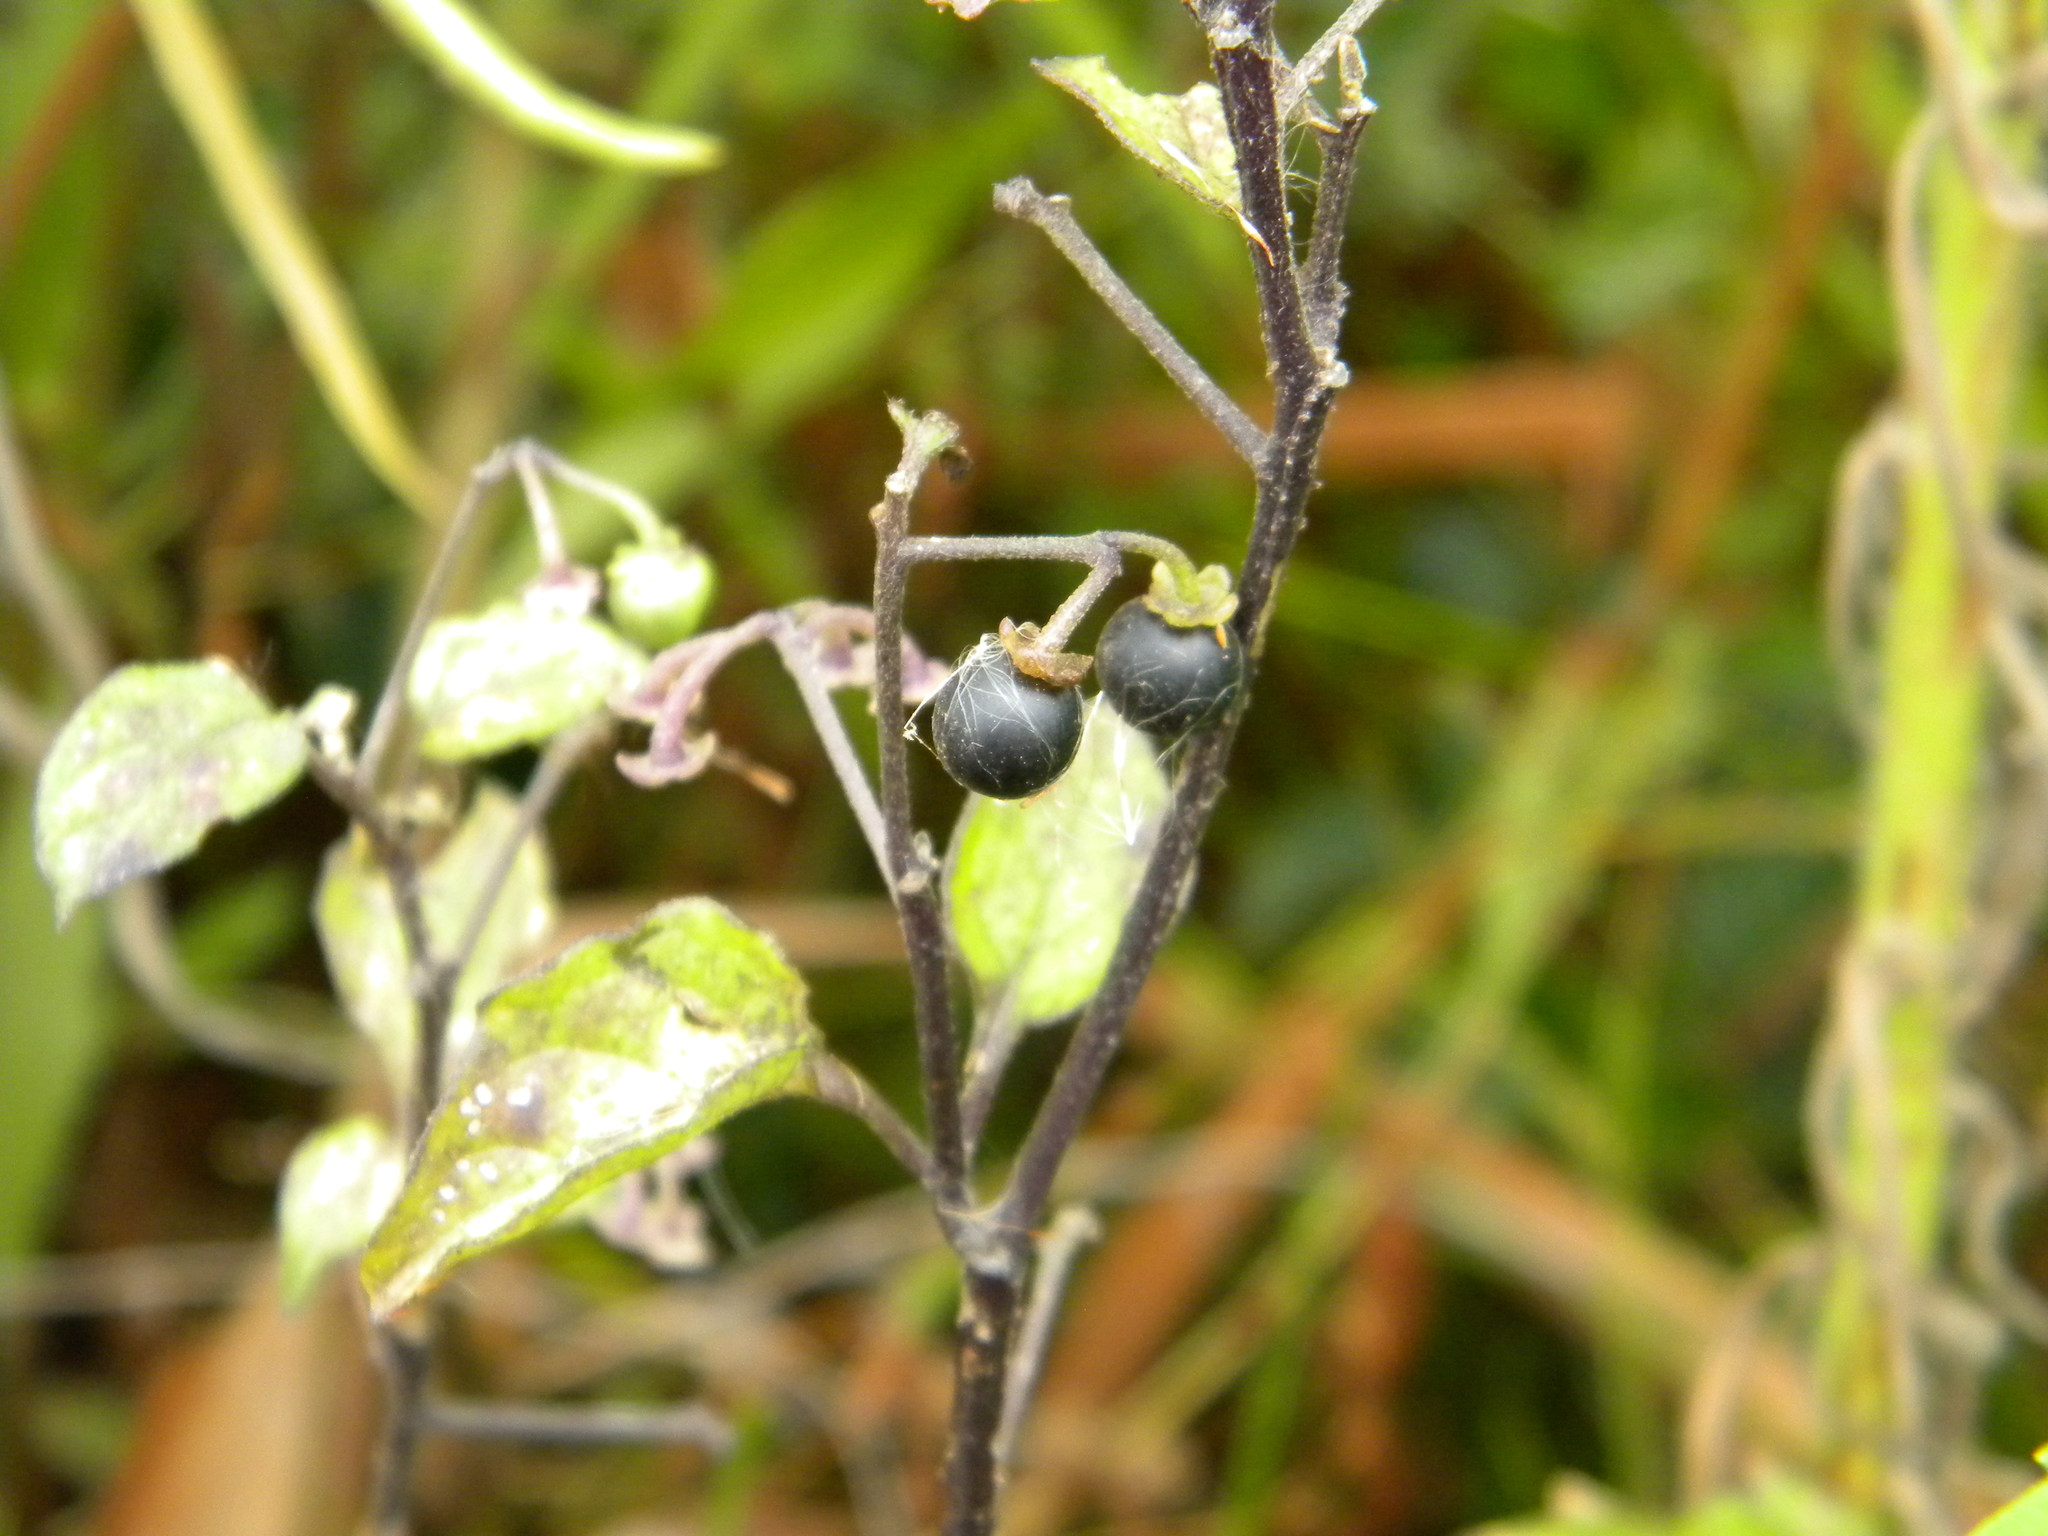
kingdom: Plantae
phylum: Tracheophyta
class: Magnoliopsida
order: Solanales
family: Solanaceae
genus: Solanum
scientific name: Solanum nigrum
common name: Black nightshade
